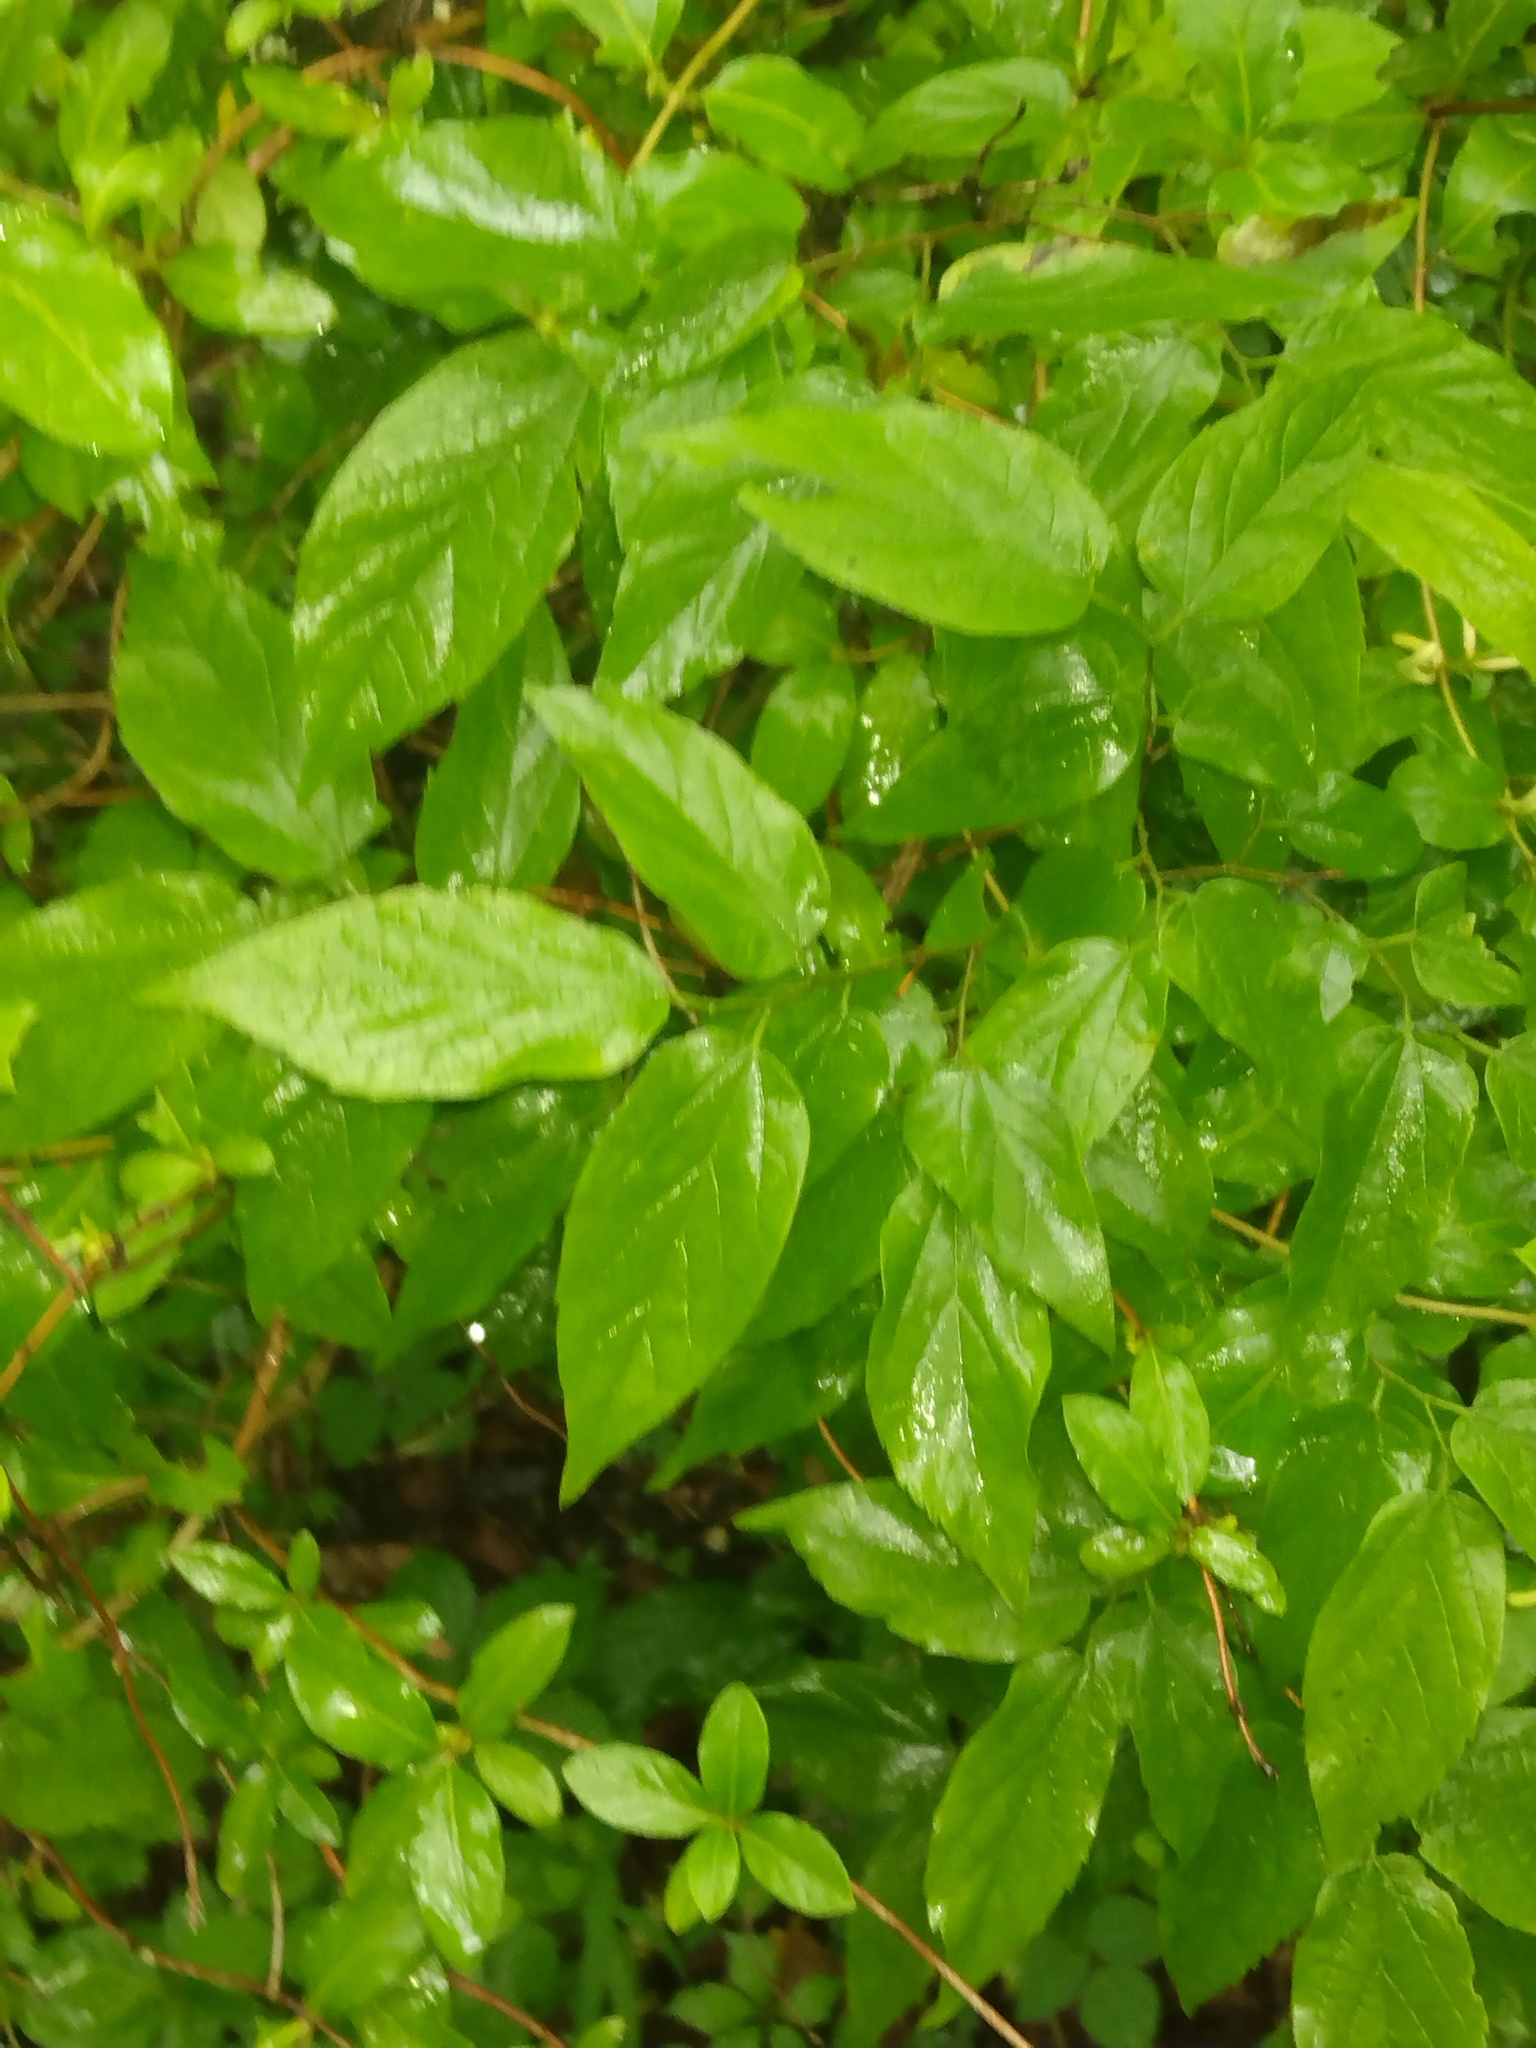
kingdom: Plantae
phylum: Tracheophyta
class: Magnoliopsida
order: Rosales
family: Cannabaceae
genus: Celtis
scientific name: Celtis laevigata
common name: Sugarberry
